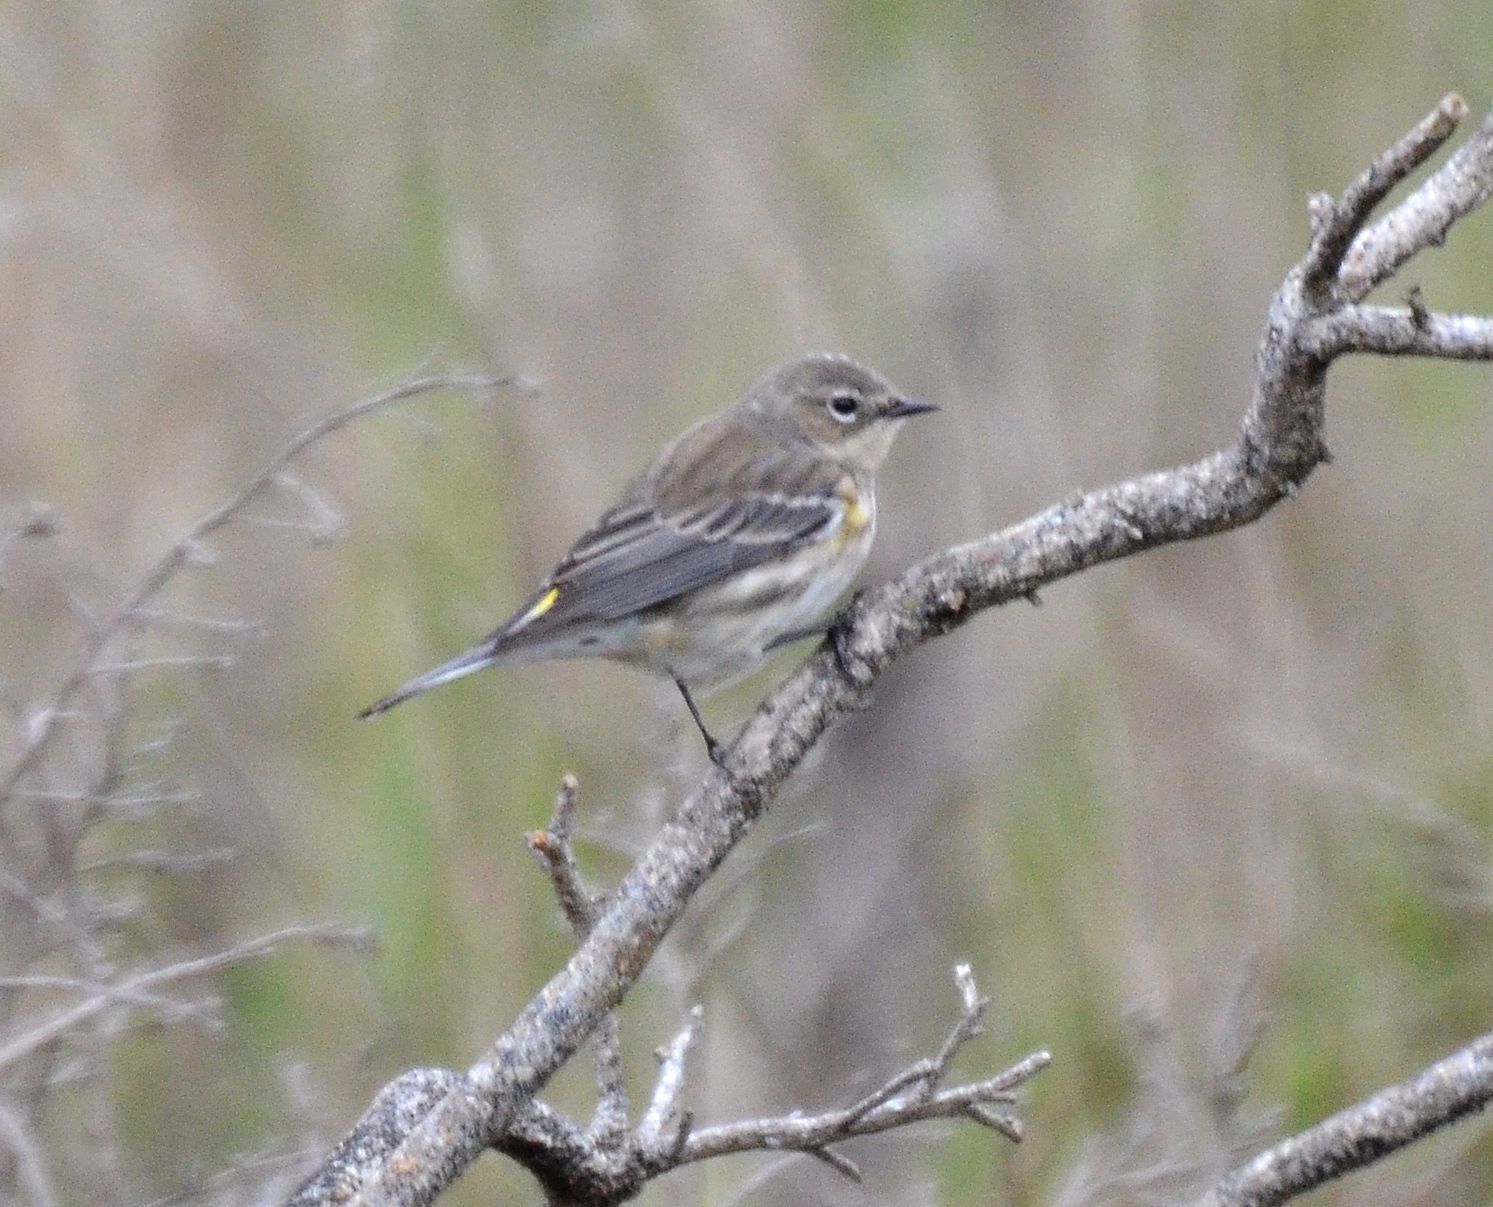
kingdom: Animalia
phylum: Chordata
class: Aves
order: Passeriformes
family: Parulidae
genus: Setophaga
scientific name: Setophaga coronata
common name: Myrtle warbler
